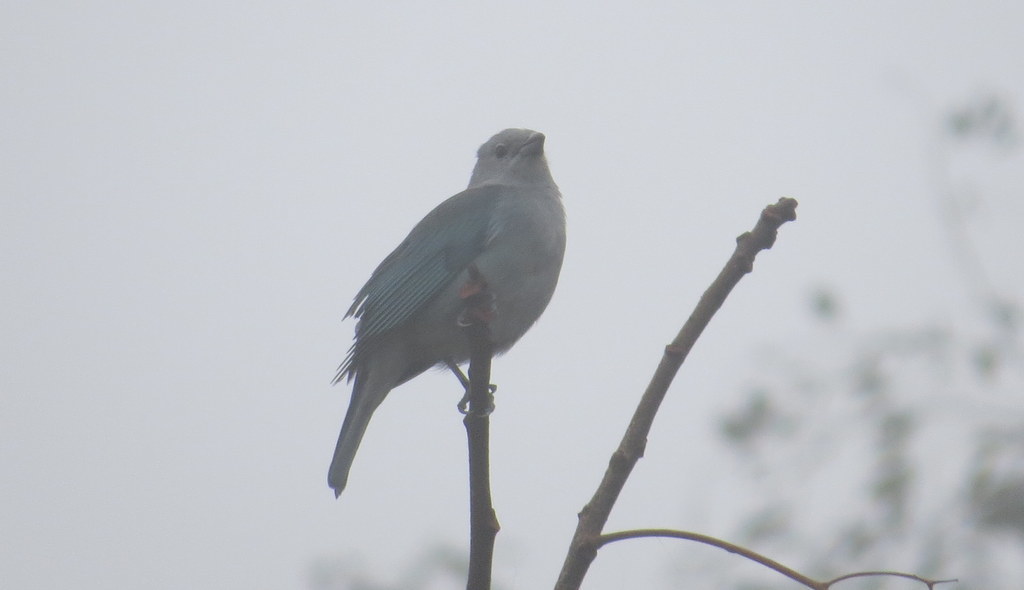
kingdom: Animalia
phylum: Chordata
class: Aves
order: Passeriformes
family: Thraupidae
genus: Thraupis
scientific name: Thraupis sayaca
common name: Sayaca tanager
